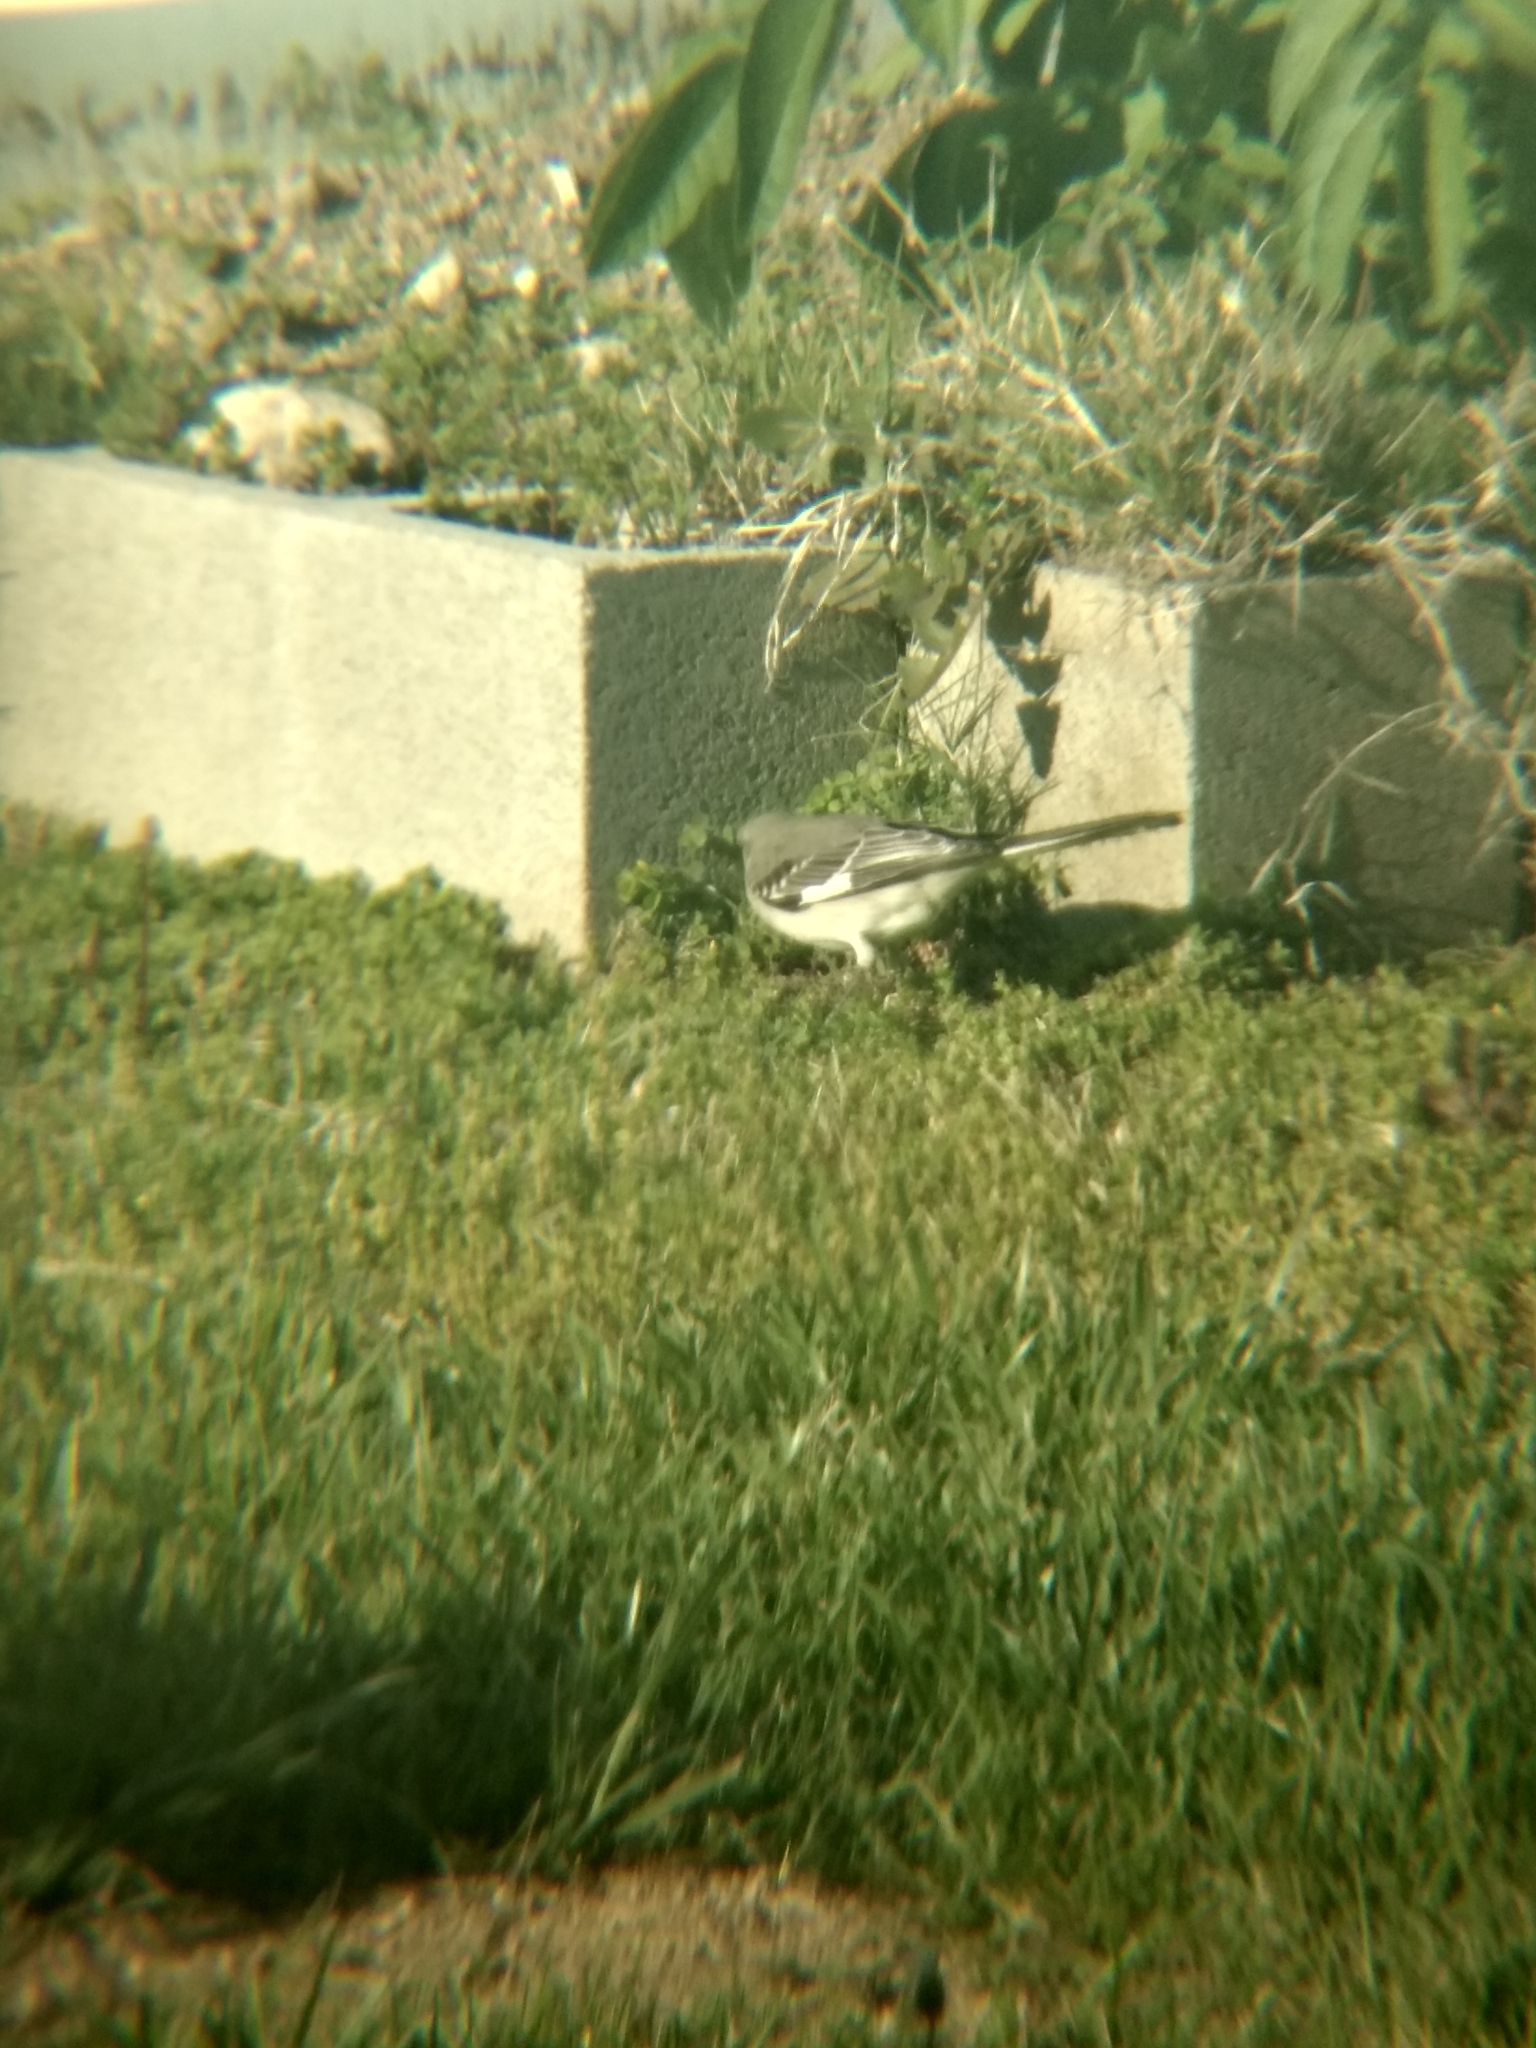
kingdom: Animalia
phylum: Chordata
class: Aves
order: Passeriformes
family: Mimidae
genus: Mimus
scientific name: Mimus polyglottos
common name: Northern mockingbird
